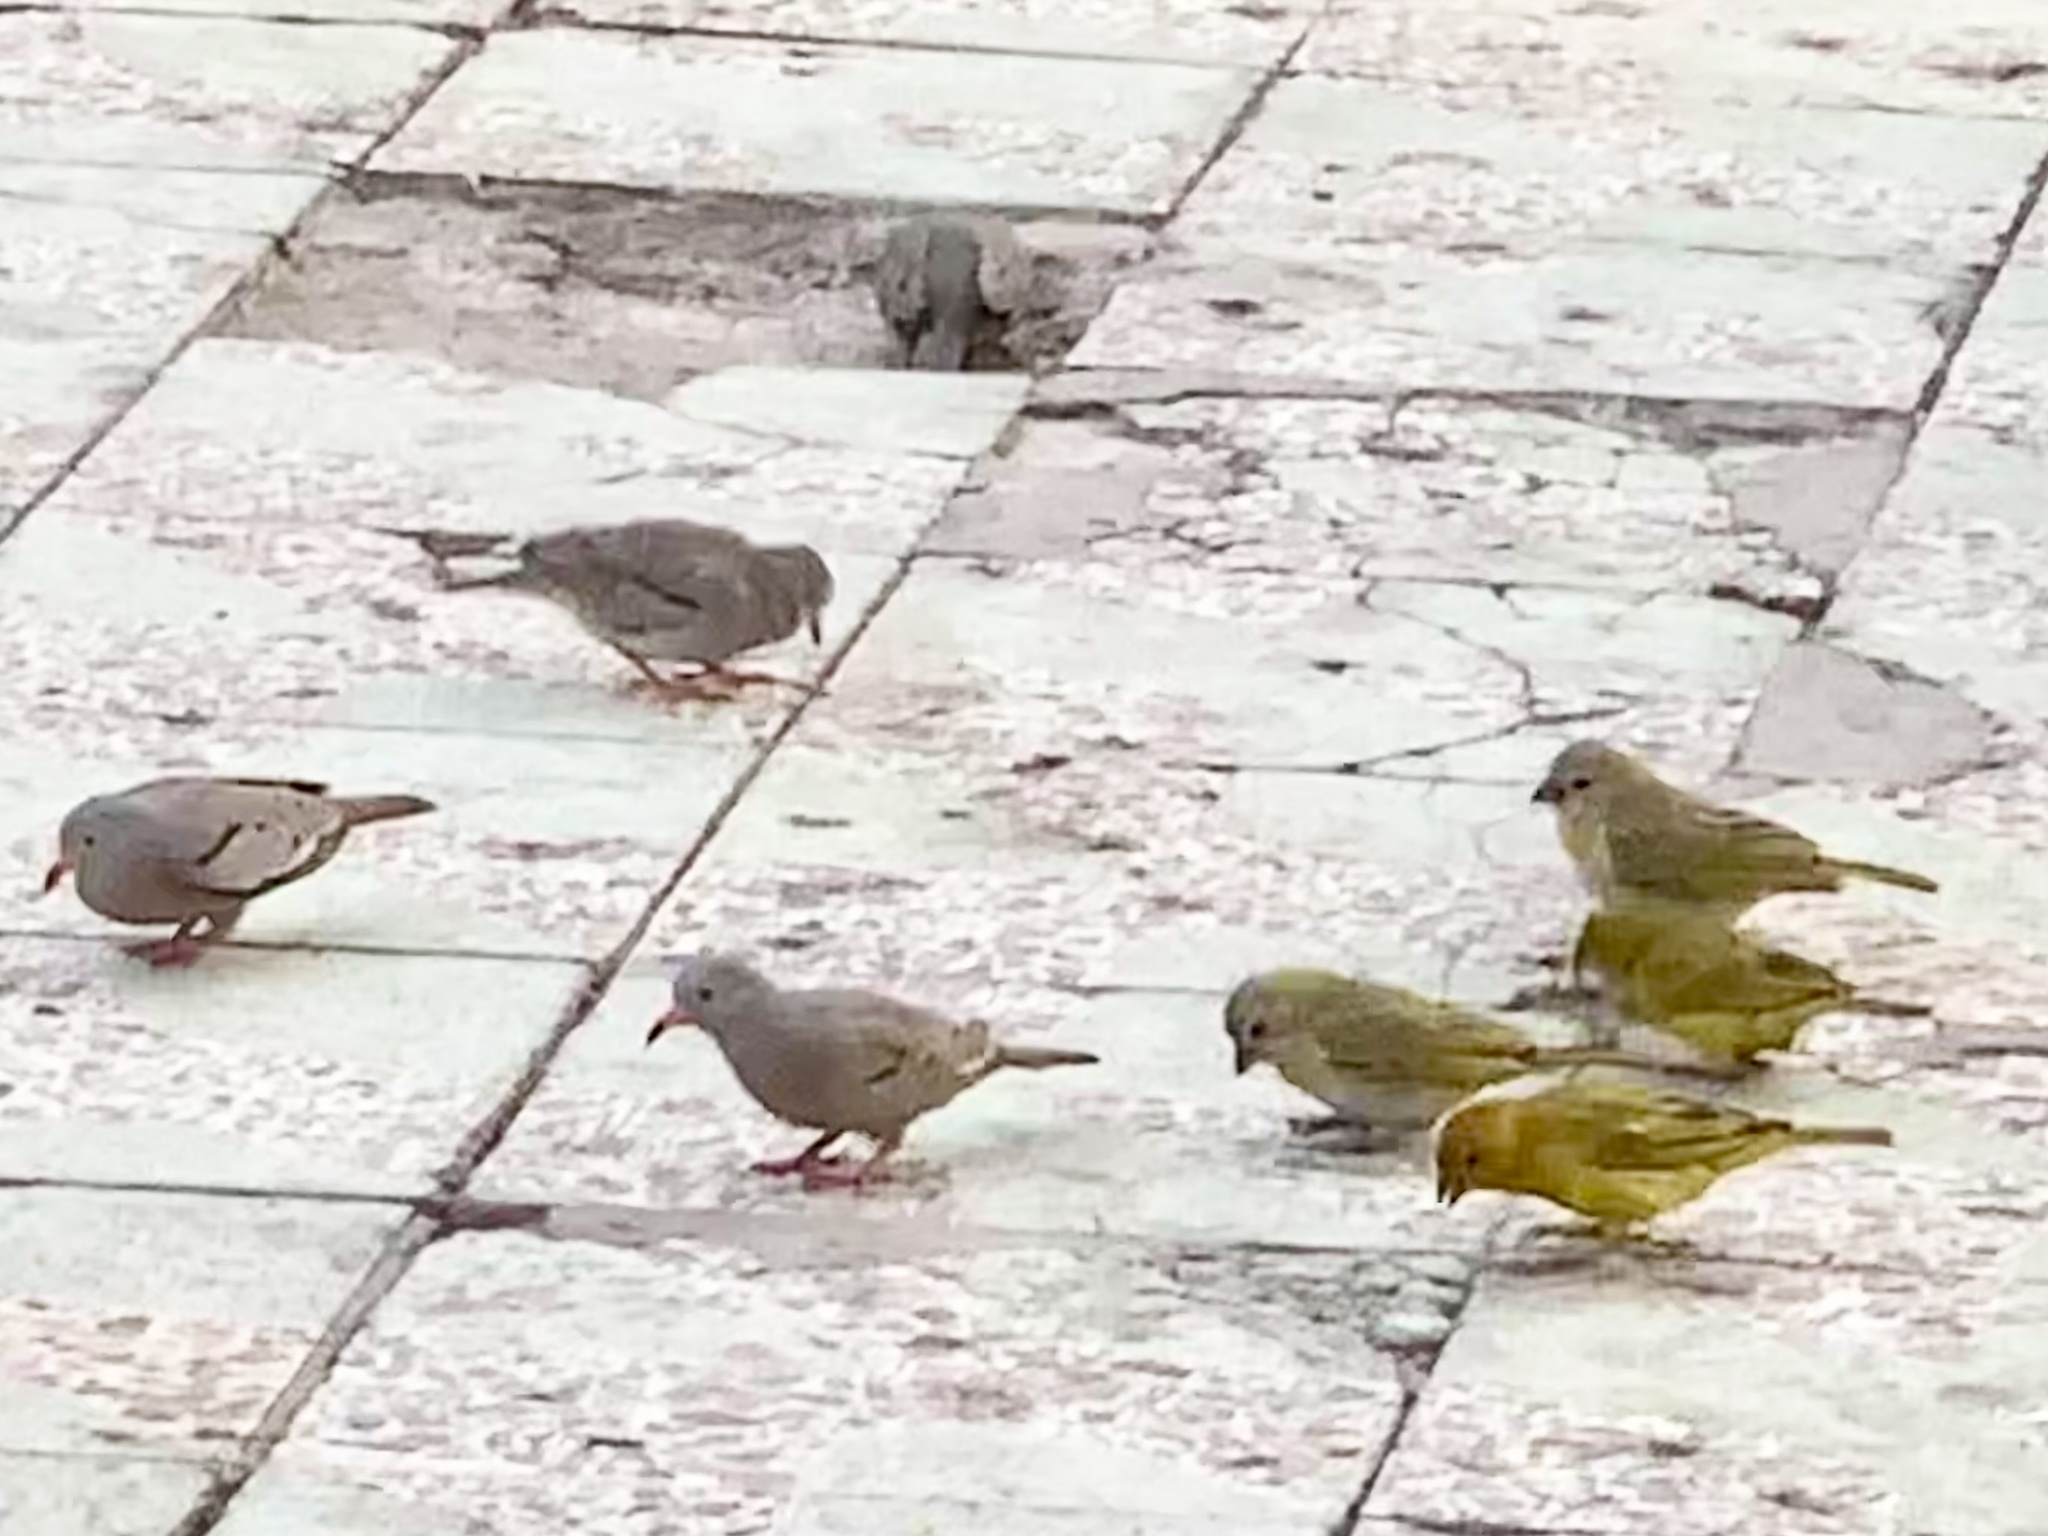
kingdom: Animalia
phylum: Chordata
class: Aves
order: Columbiformes
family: Columbidae
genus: Columbina
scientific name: Columbina cruziana
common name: Croaking ground dove
